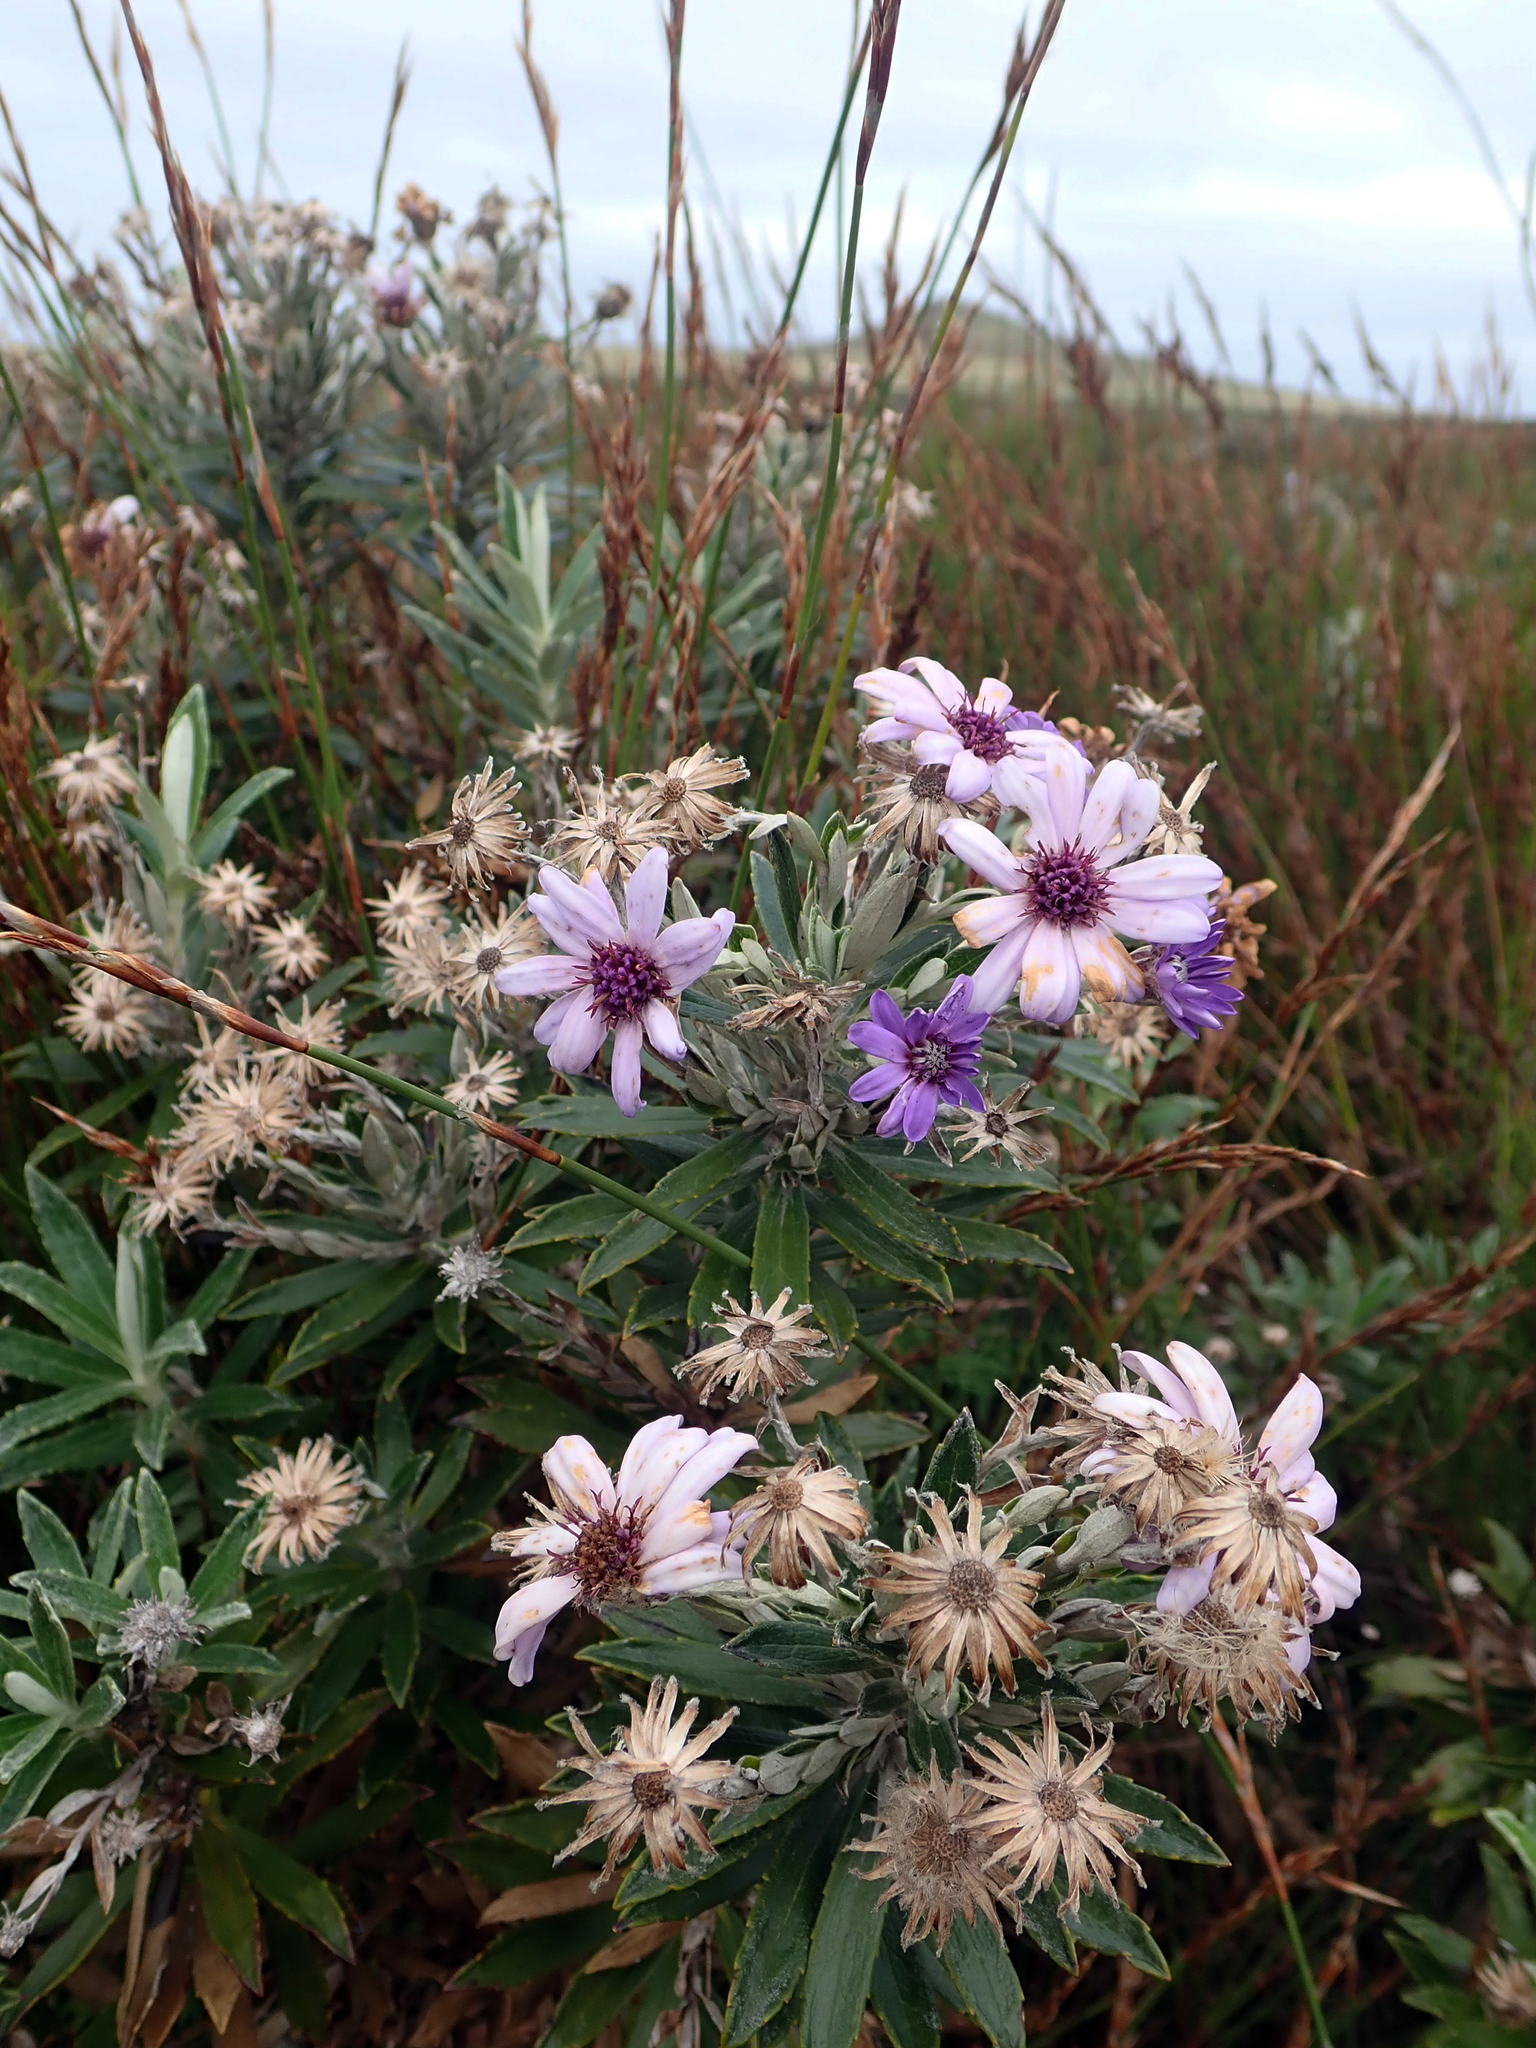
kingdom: Plantae
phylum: Tracheophyta
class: Magnoliopsida
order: Asterales
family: Asteraceae
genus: Macrolearia
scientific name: Macrolearia semidentata
